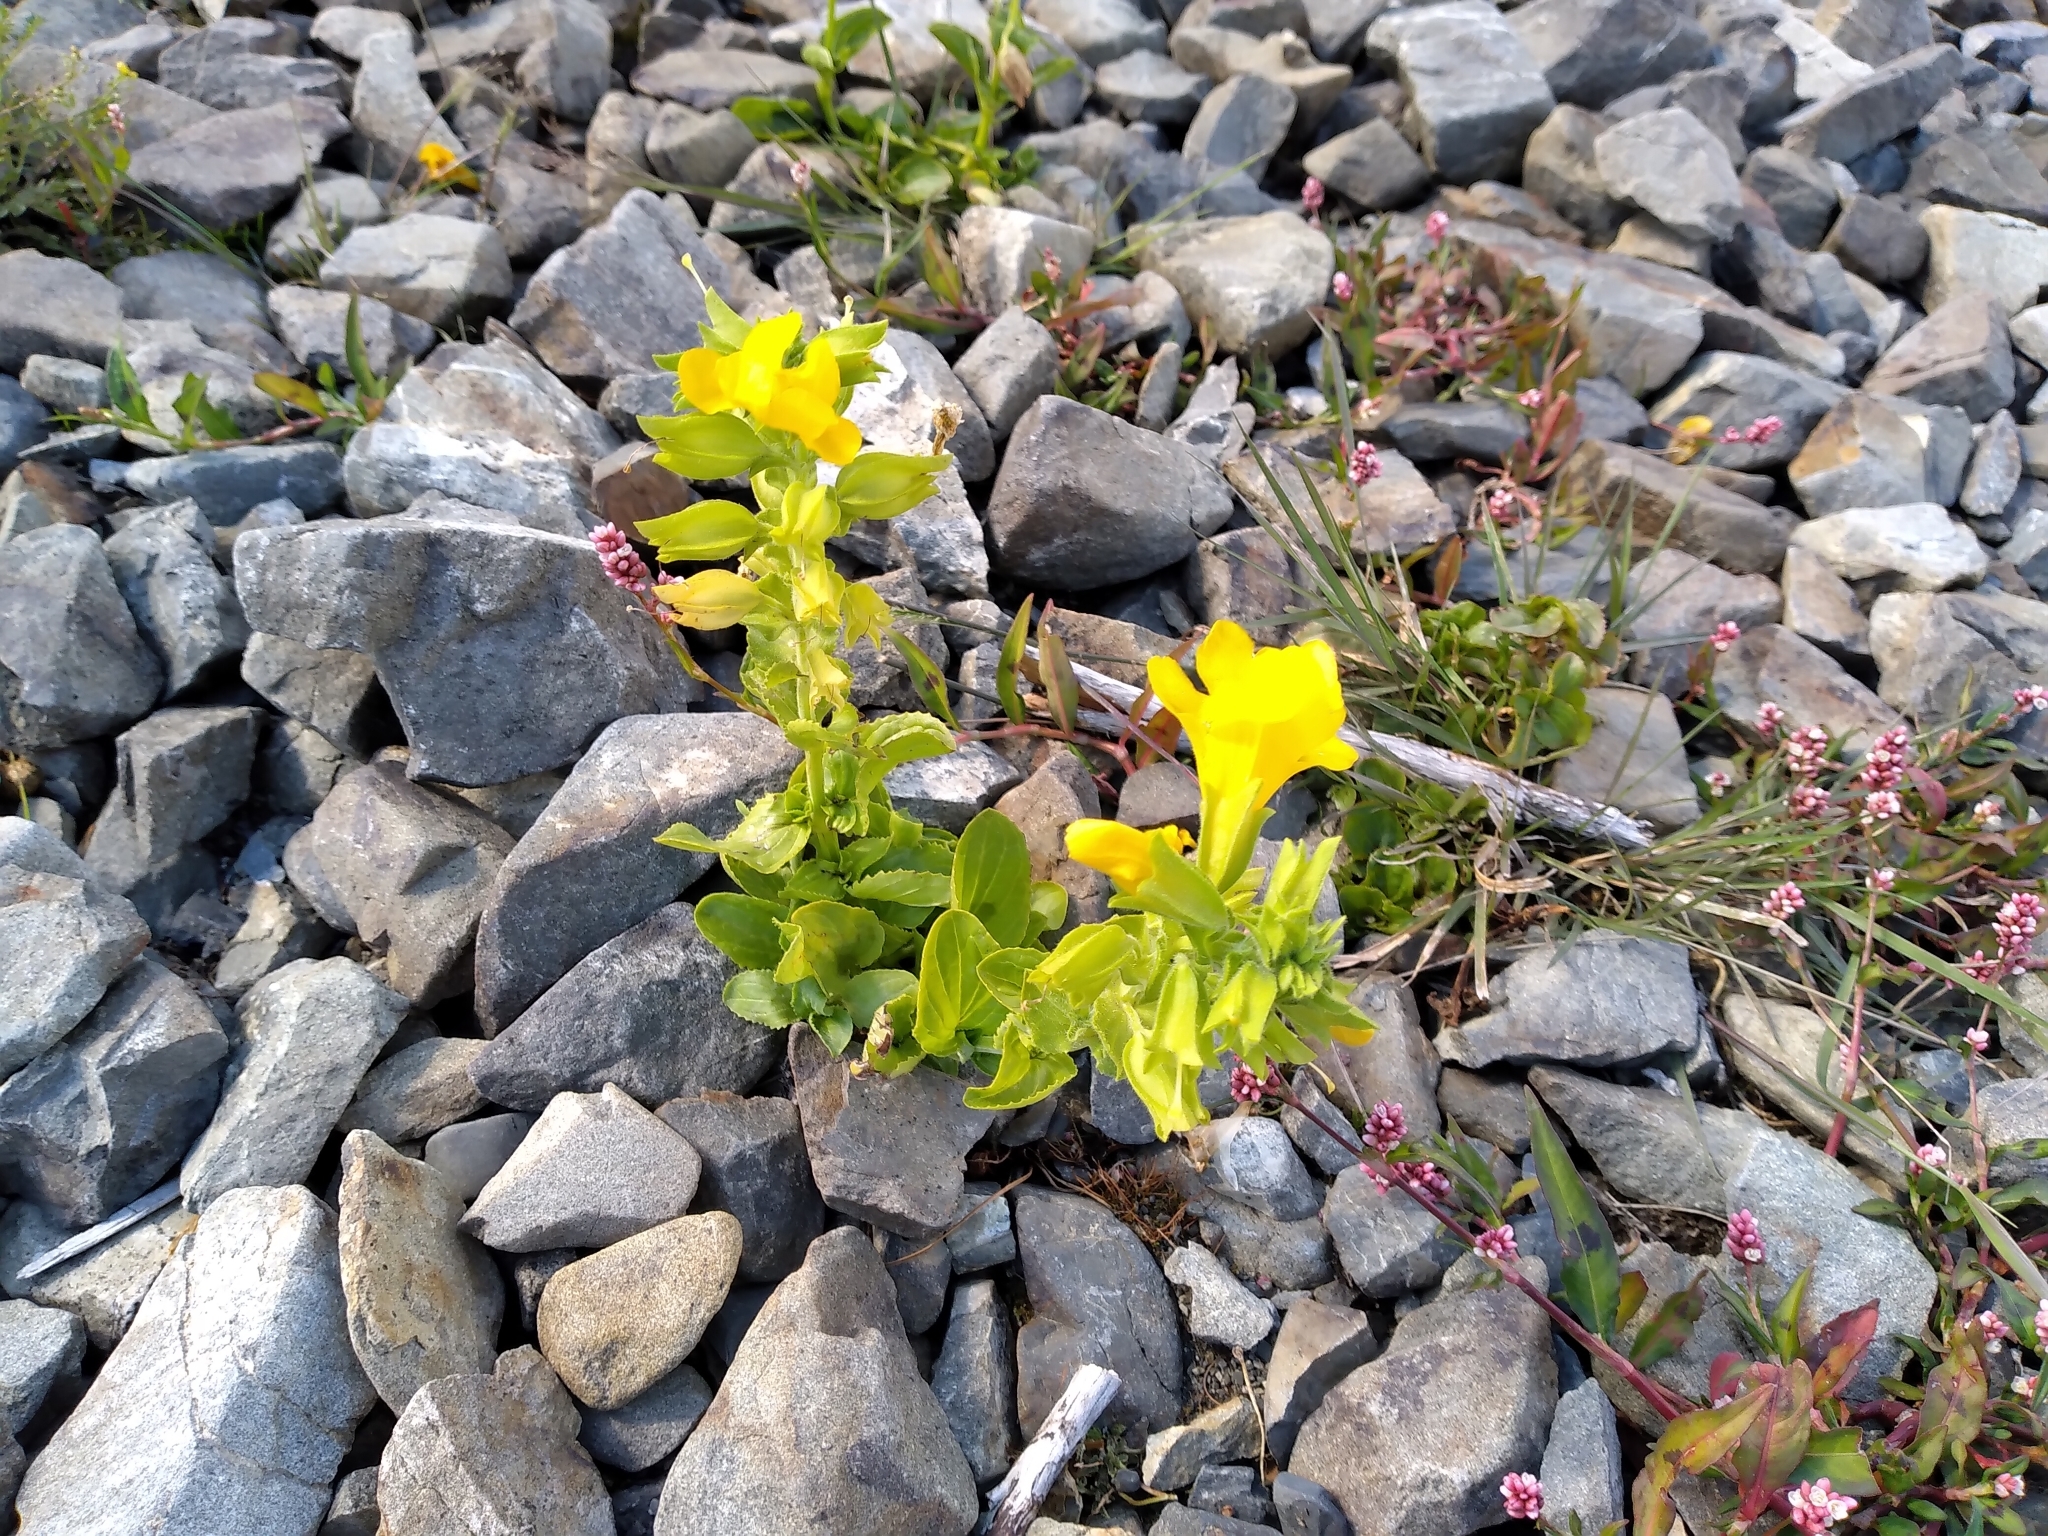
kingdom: Plantae
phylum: Tracheophyta
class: Magnoliopsida
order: Lamiales
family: Phrymaceae
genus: Erythranthe
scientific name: Erythranthe guttata
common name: Monkeyflower
